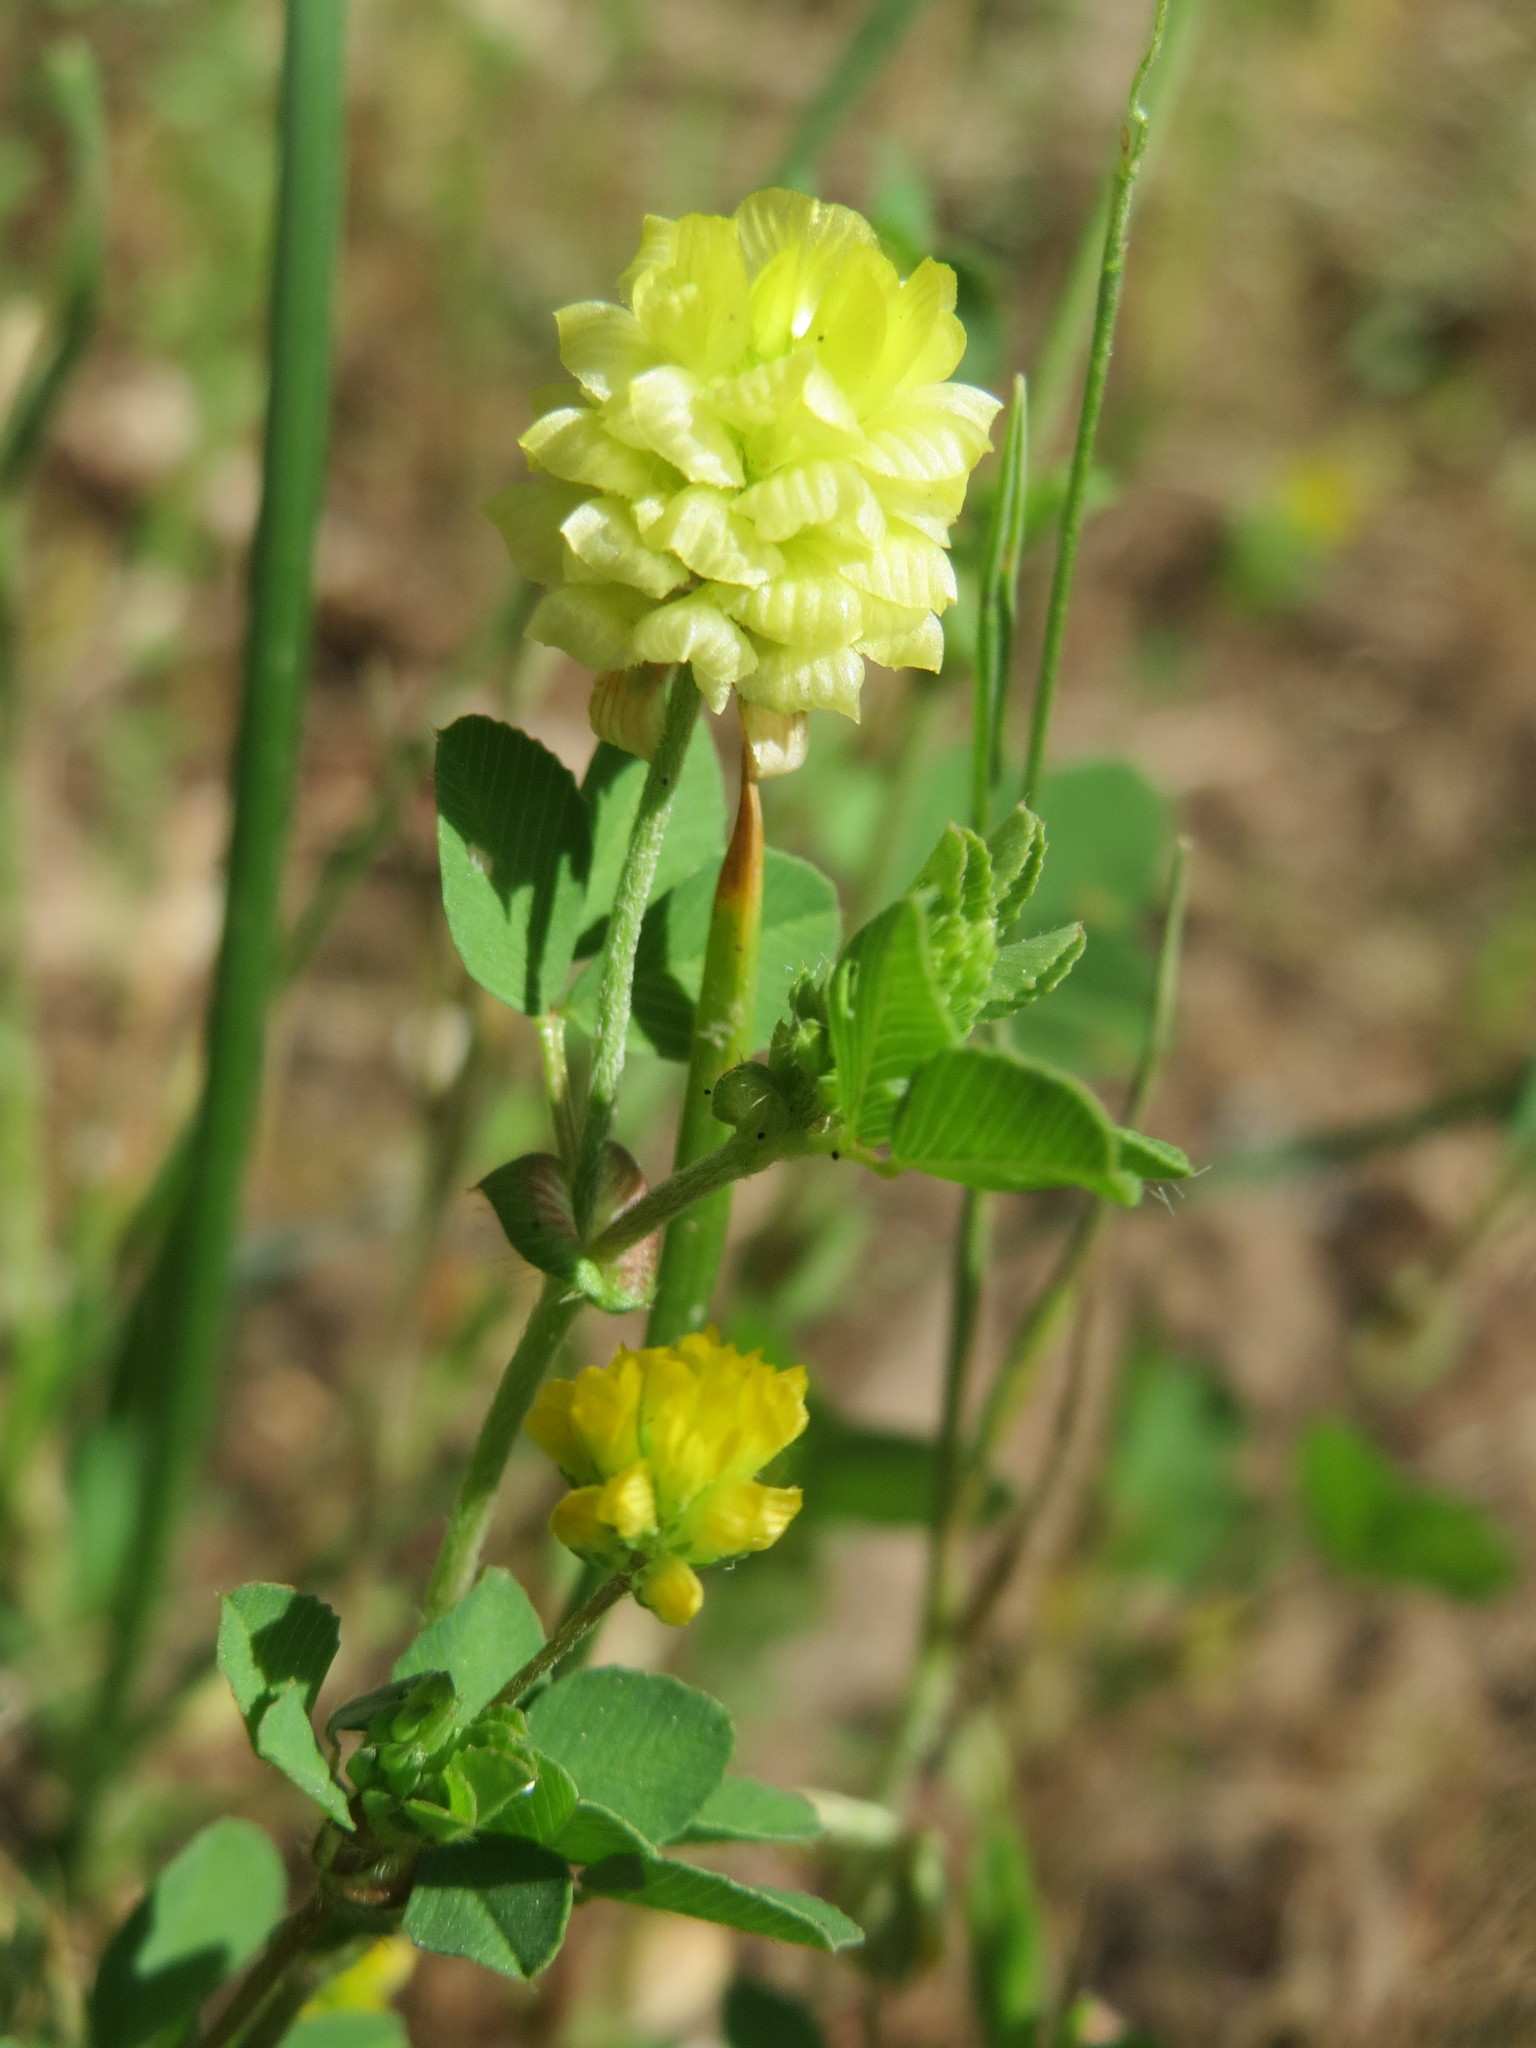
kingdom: Plantae
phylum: Tracheophyta
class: Magnoliopsida
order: Fabales
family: Fabaceae
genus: Trifolium
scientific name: Trifolium campestre
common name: Field clover
